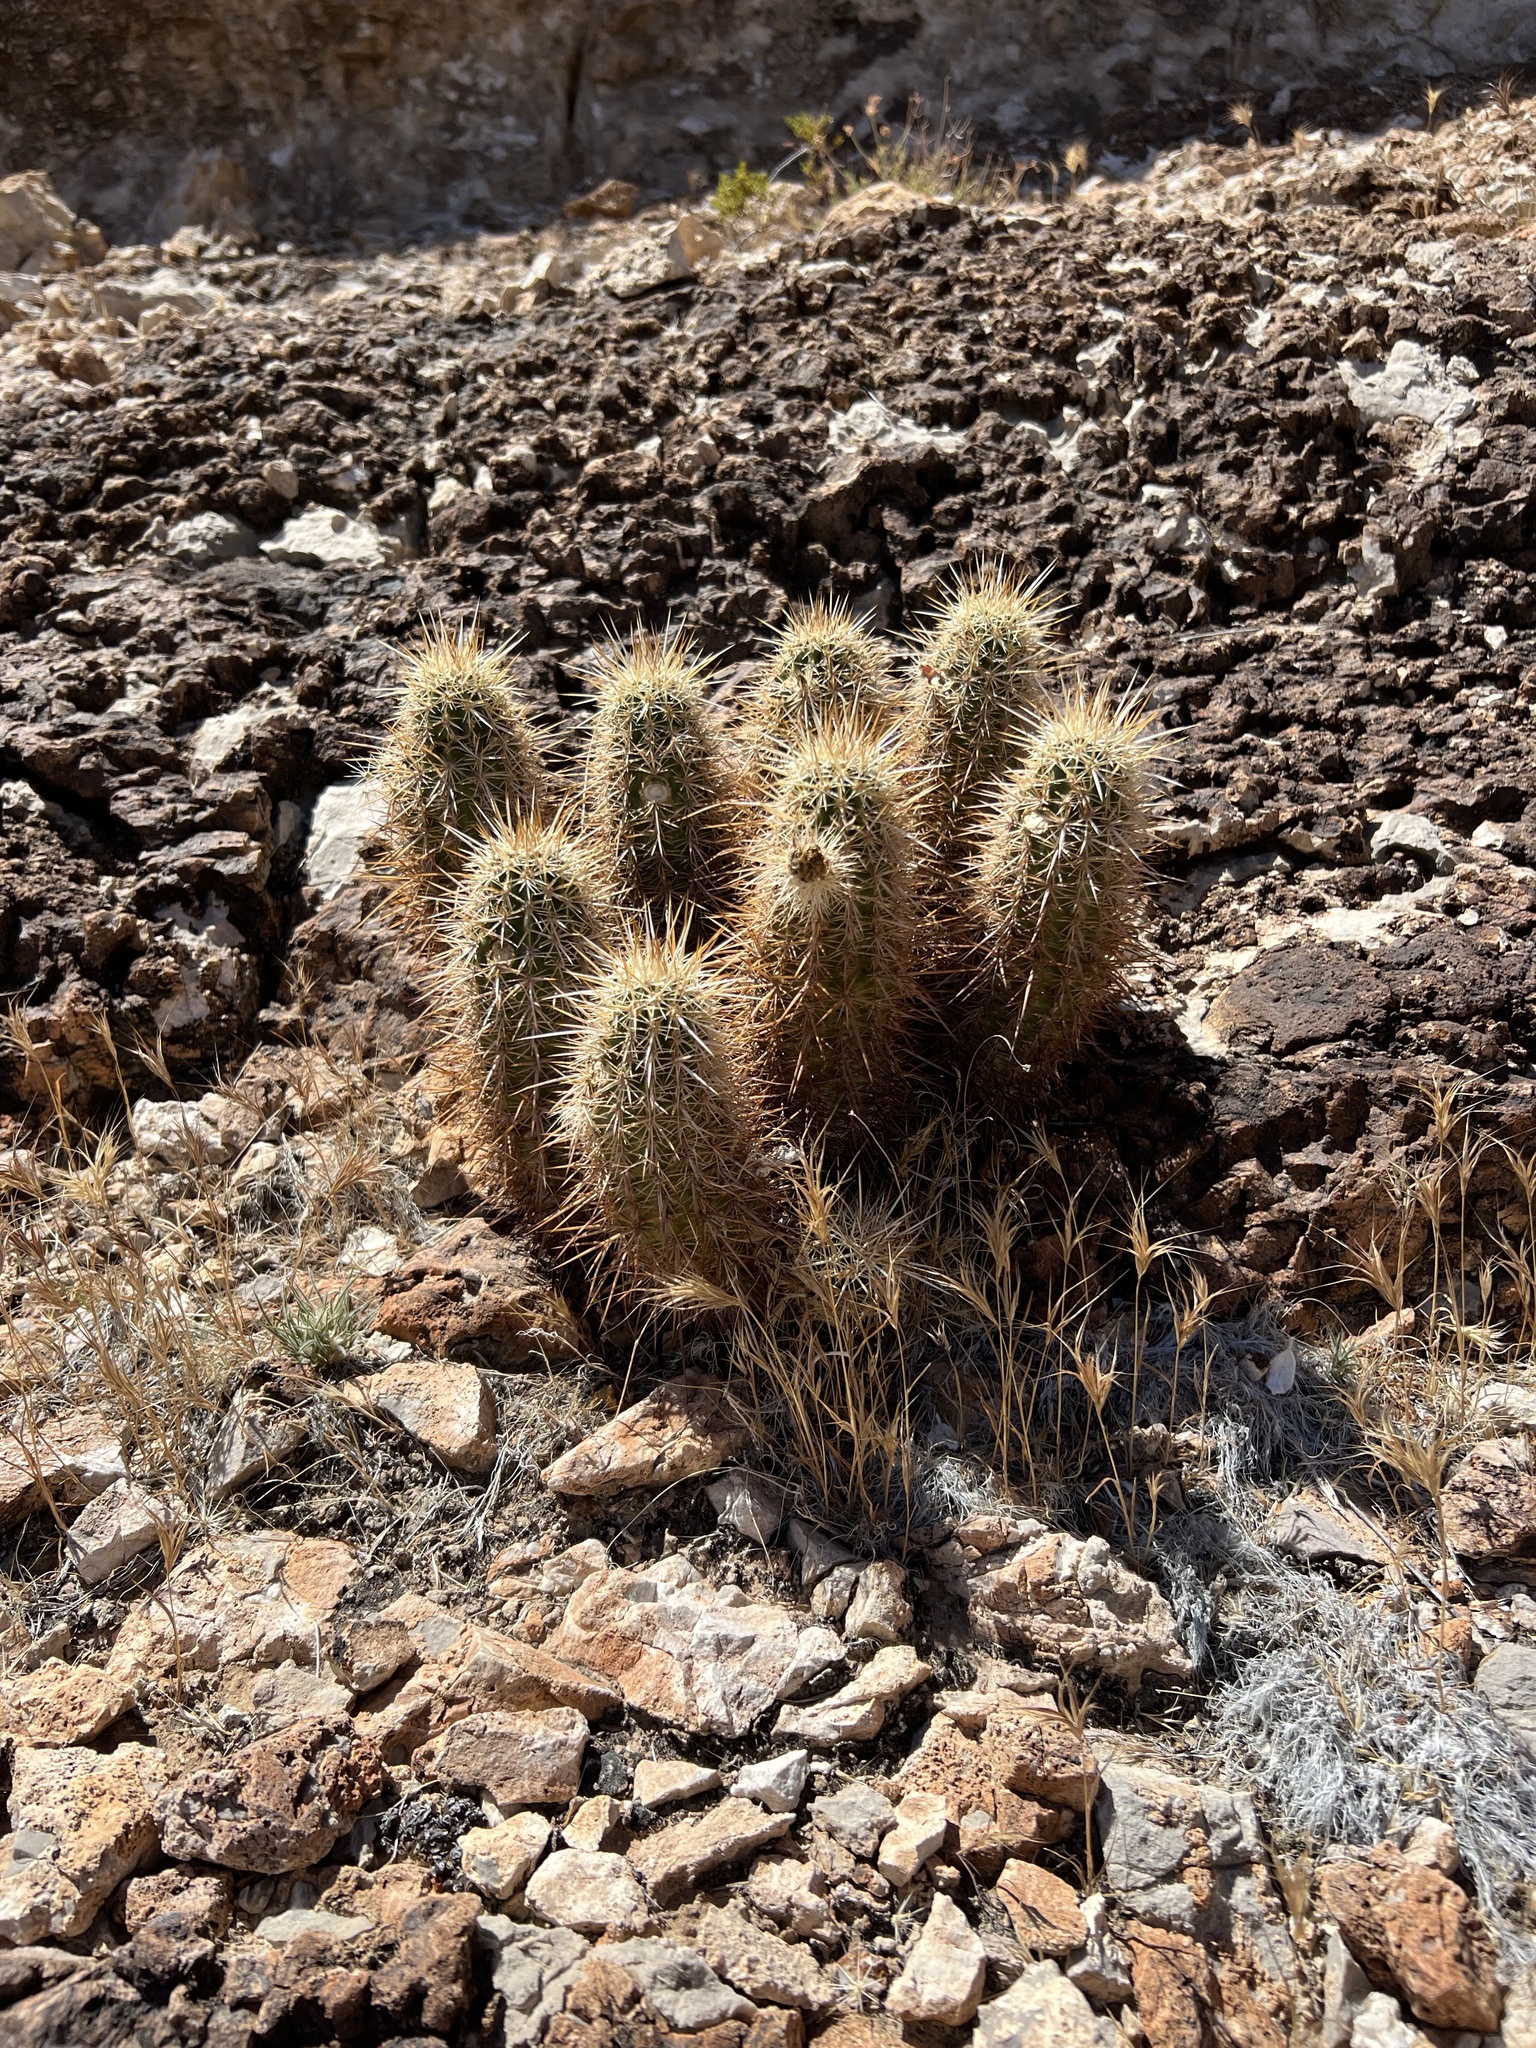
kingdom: Plantae
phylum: Tracheophyta
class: Magnoliopsida
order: Caryophyllales
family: Cactaceae
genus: Echinocereus
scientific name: Echinocereus engelmannii
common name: Engelmann's hedgehog cactus
